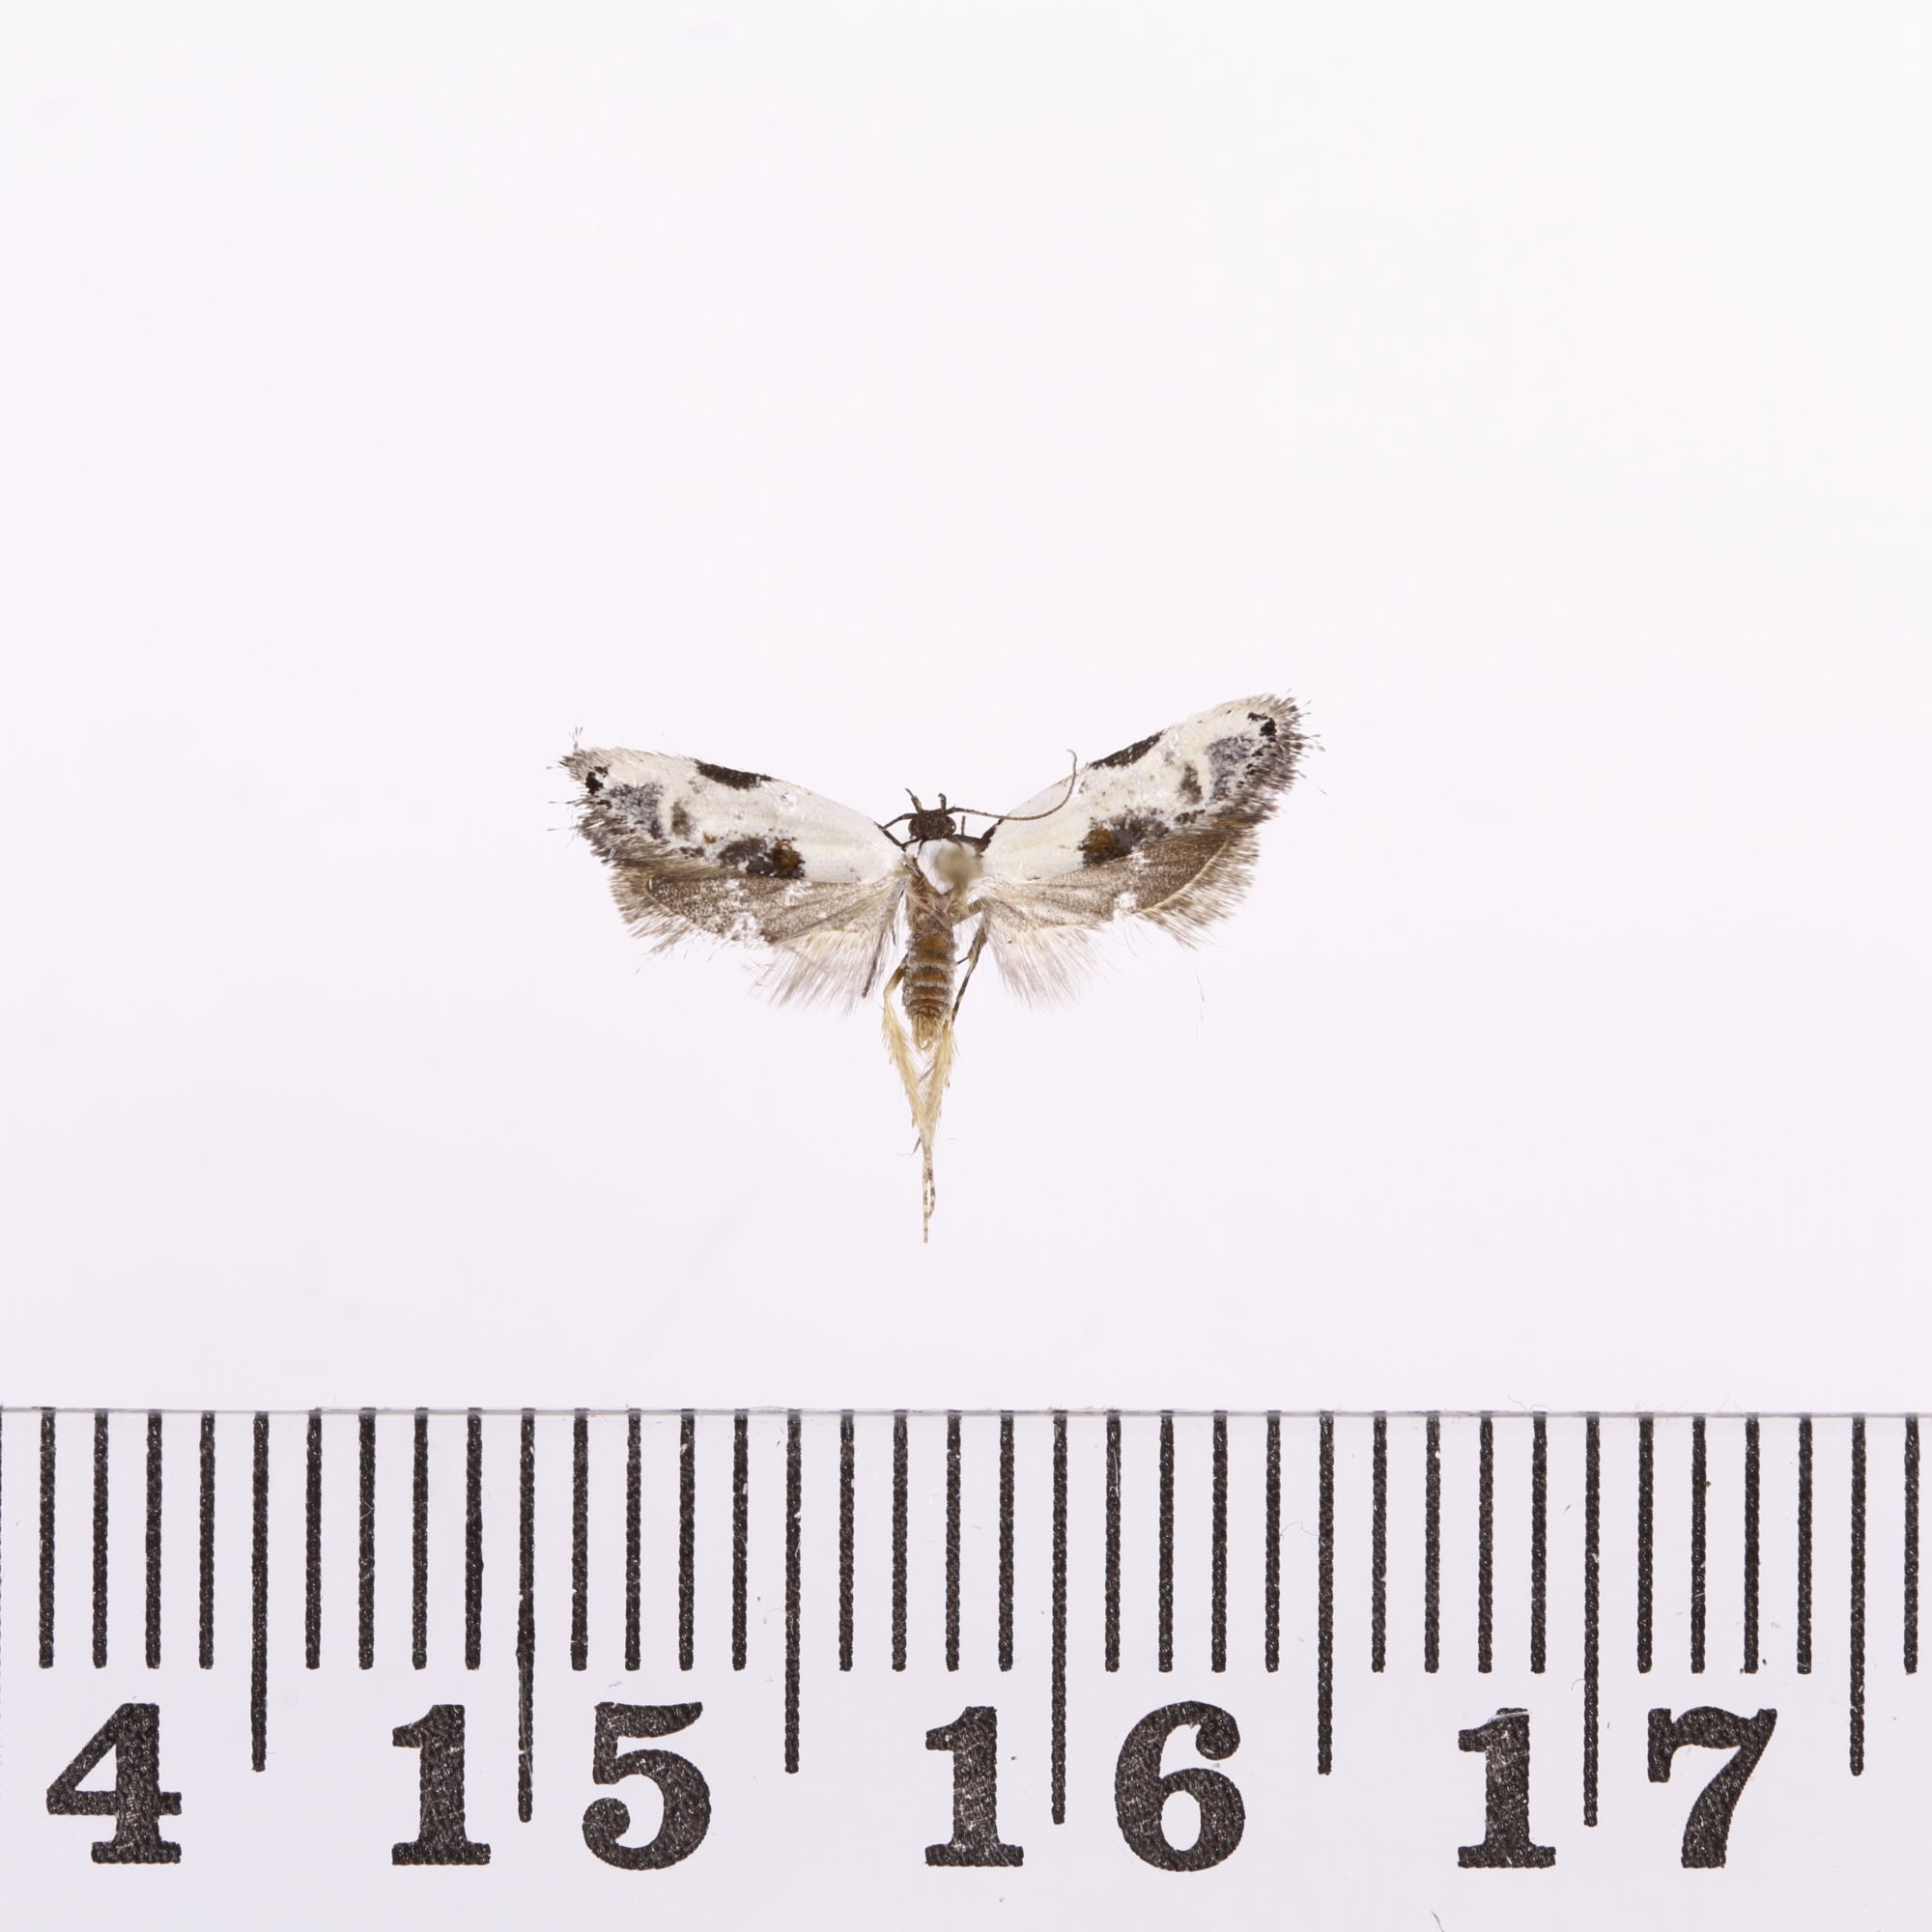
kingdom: Animalia
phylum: Arthropoda
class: Insecta
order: Lepidoptera
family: Oecophoridae
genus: Trachypepla
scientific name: Trachypepla hieropis
